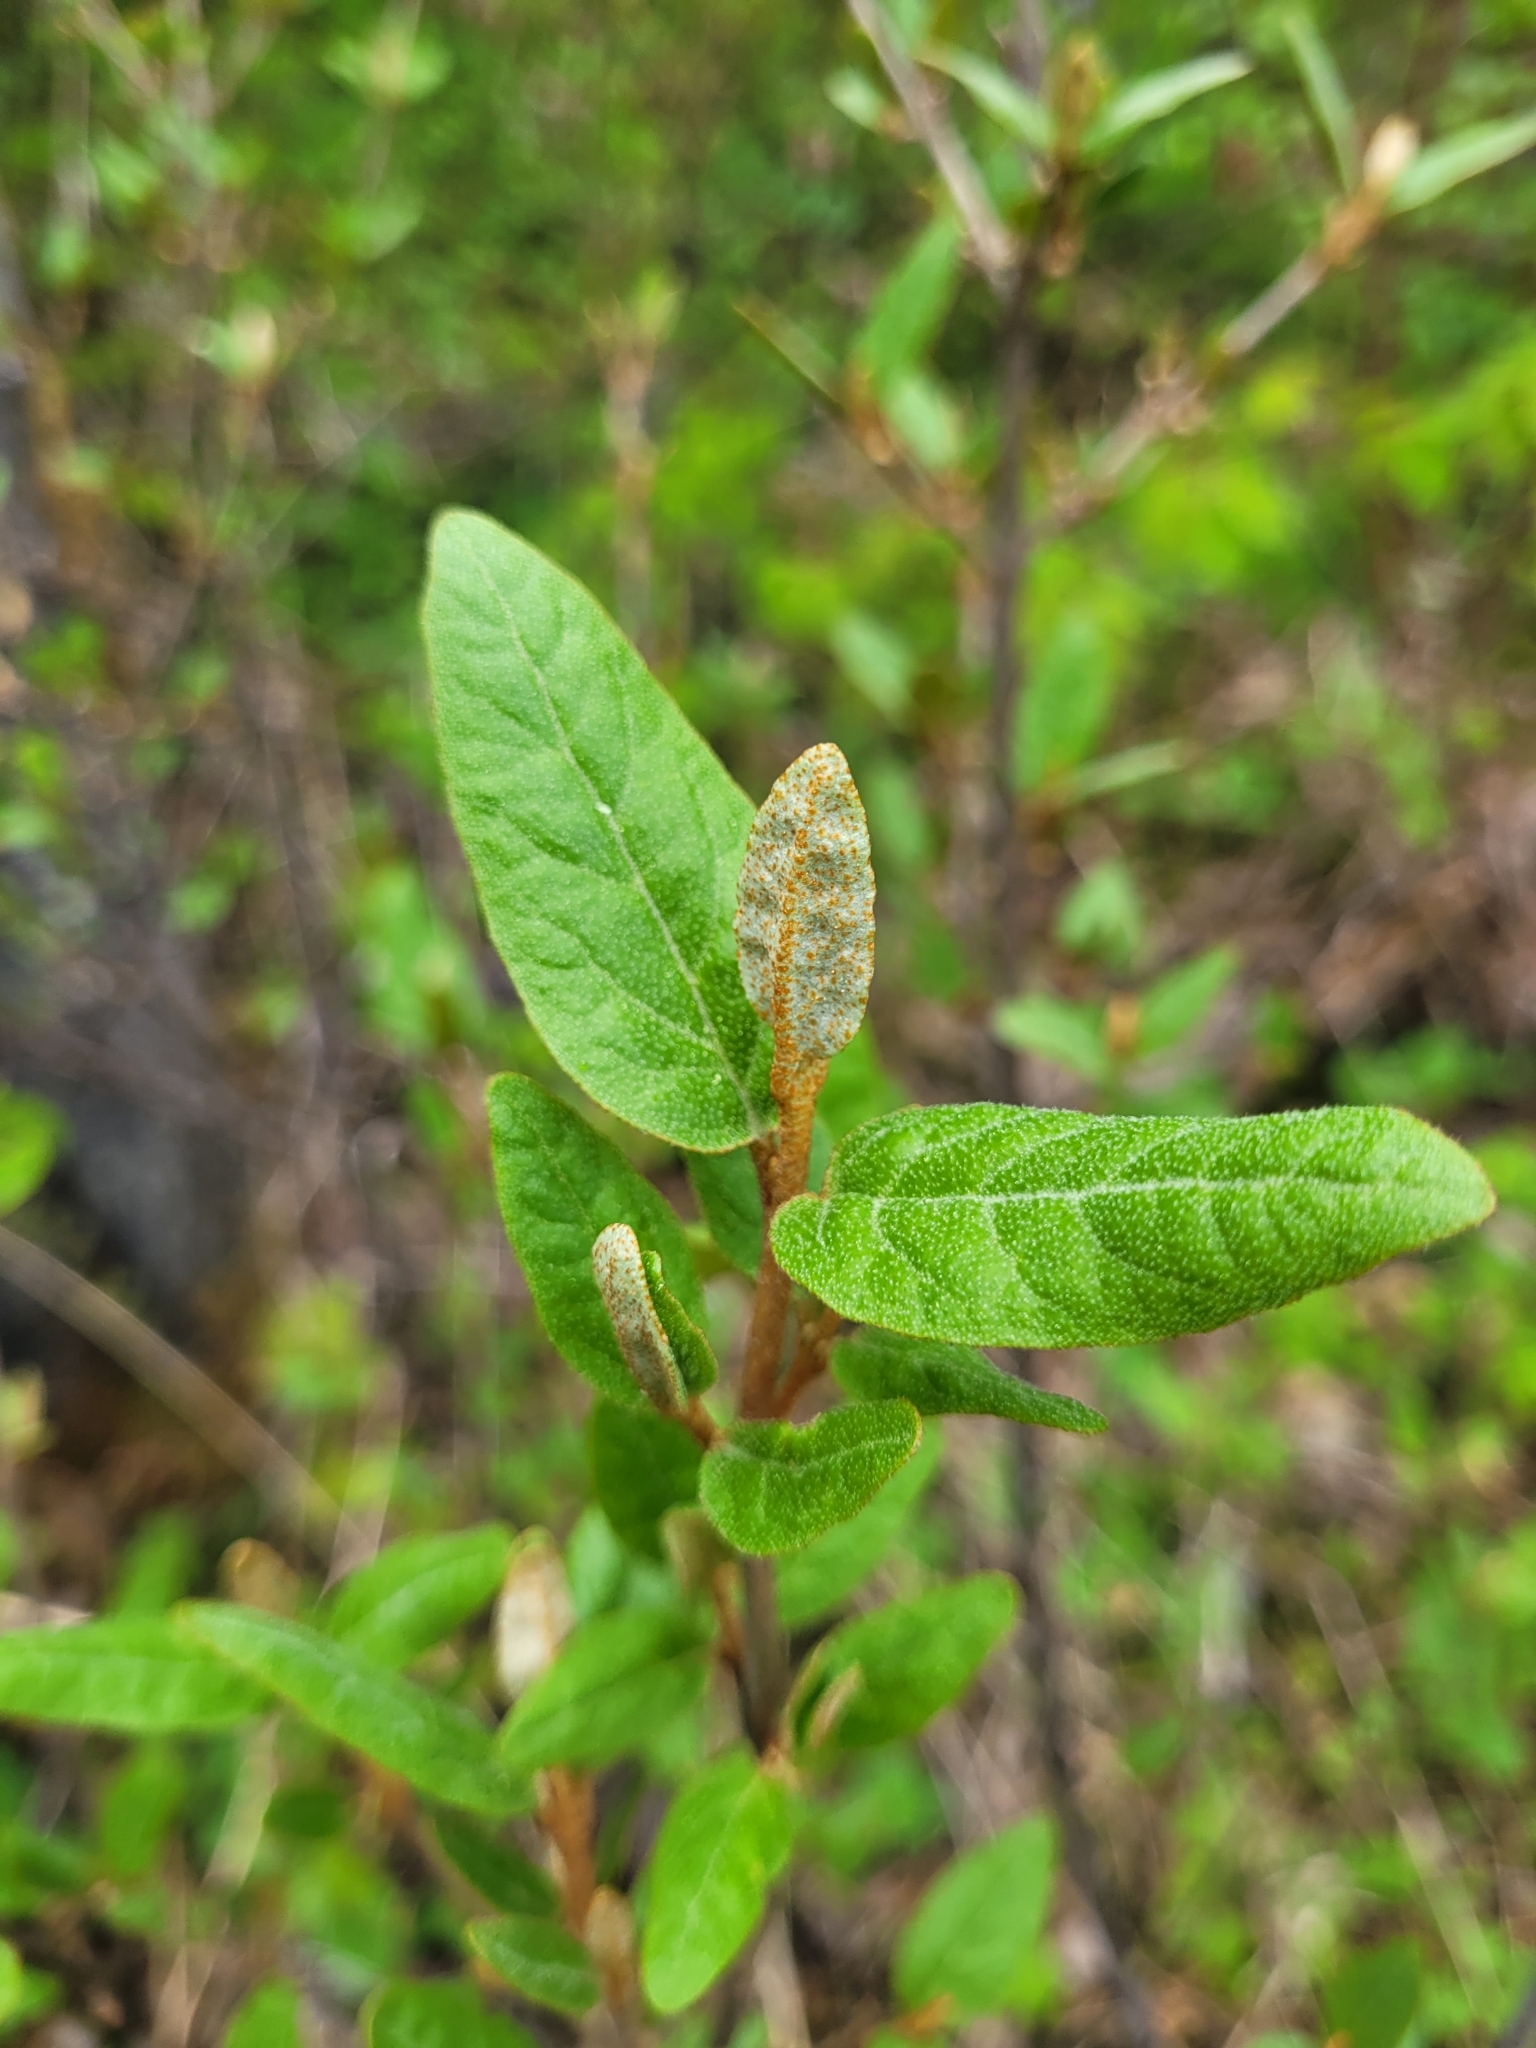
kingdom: Plantae
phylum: Tracheophyta
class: Magnoliopsida
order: Rosales
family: Elaeagnaceae
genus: Shepherdia
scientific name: Shepherdia canadensis
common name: Soapberry
